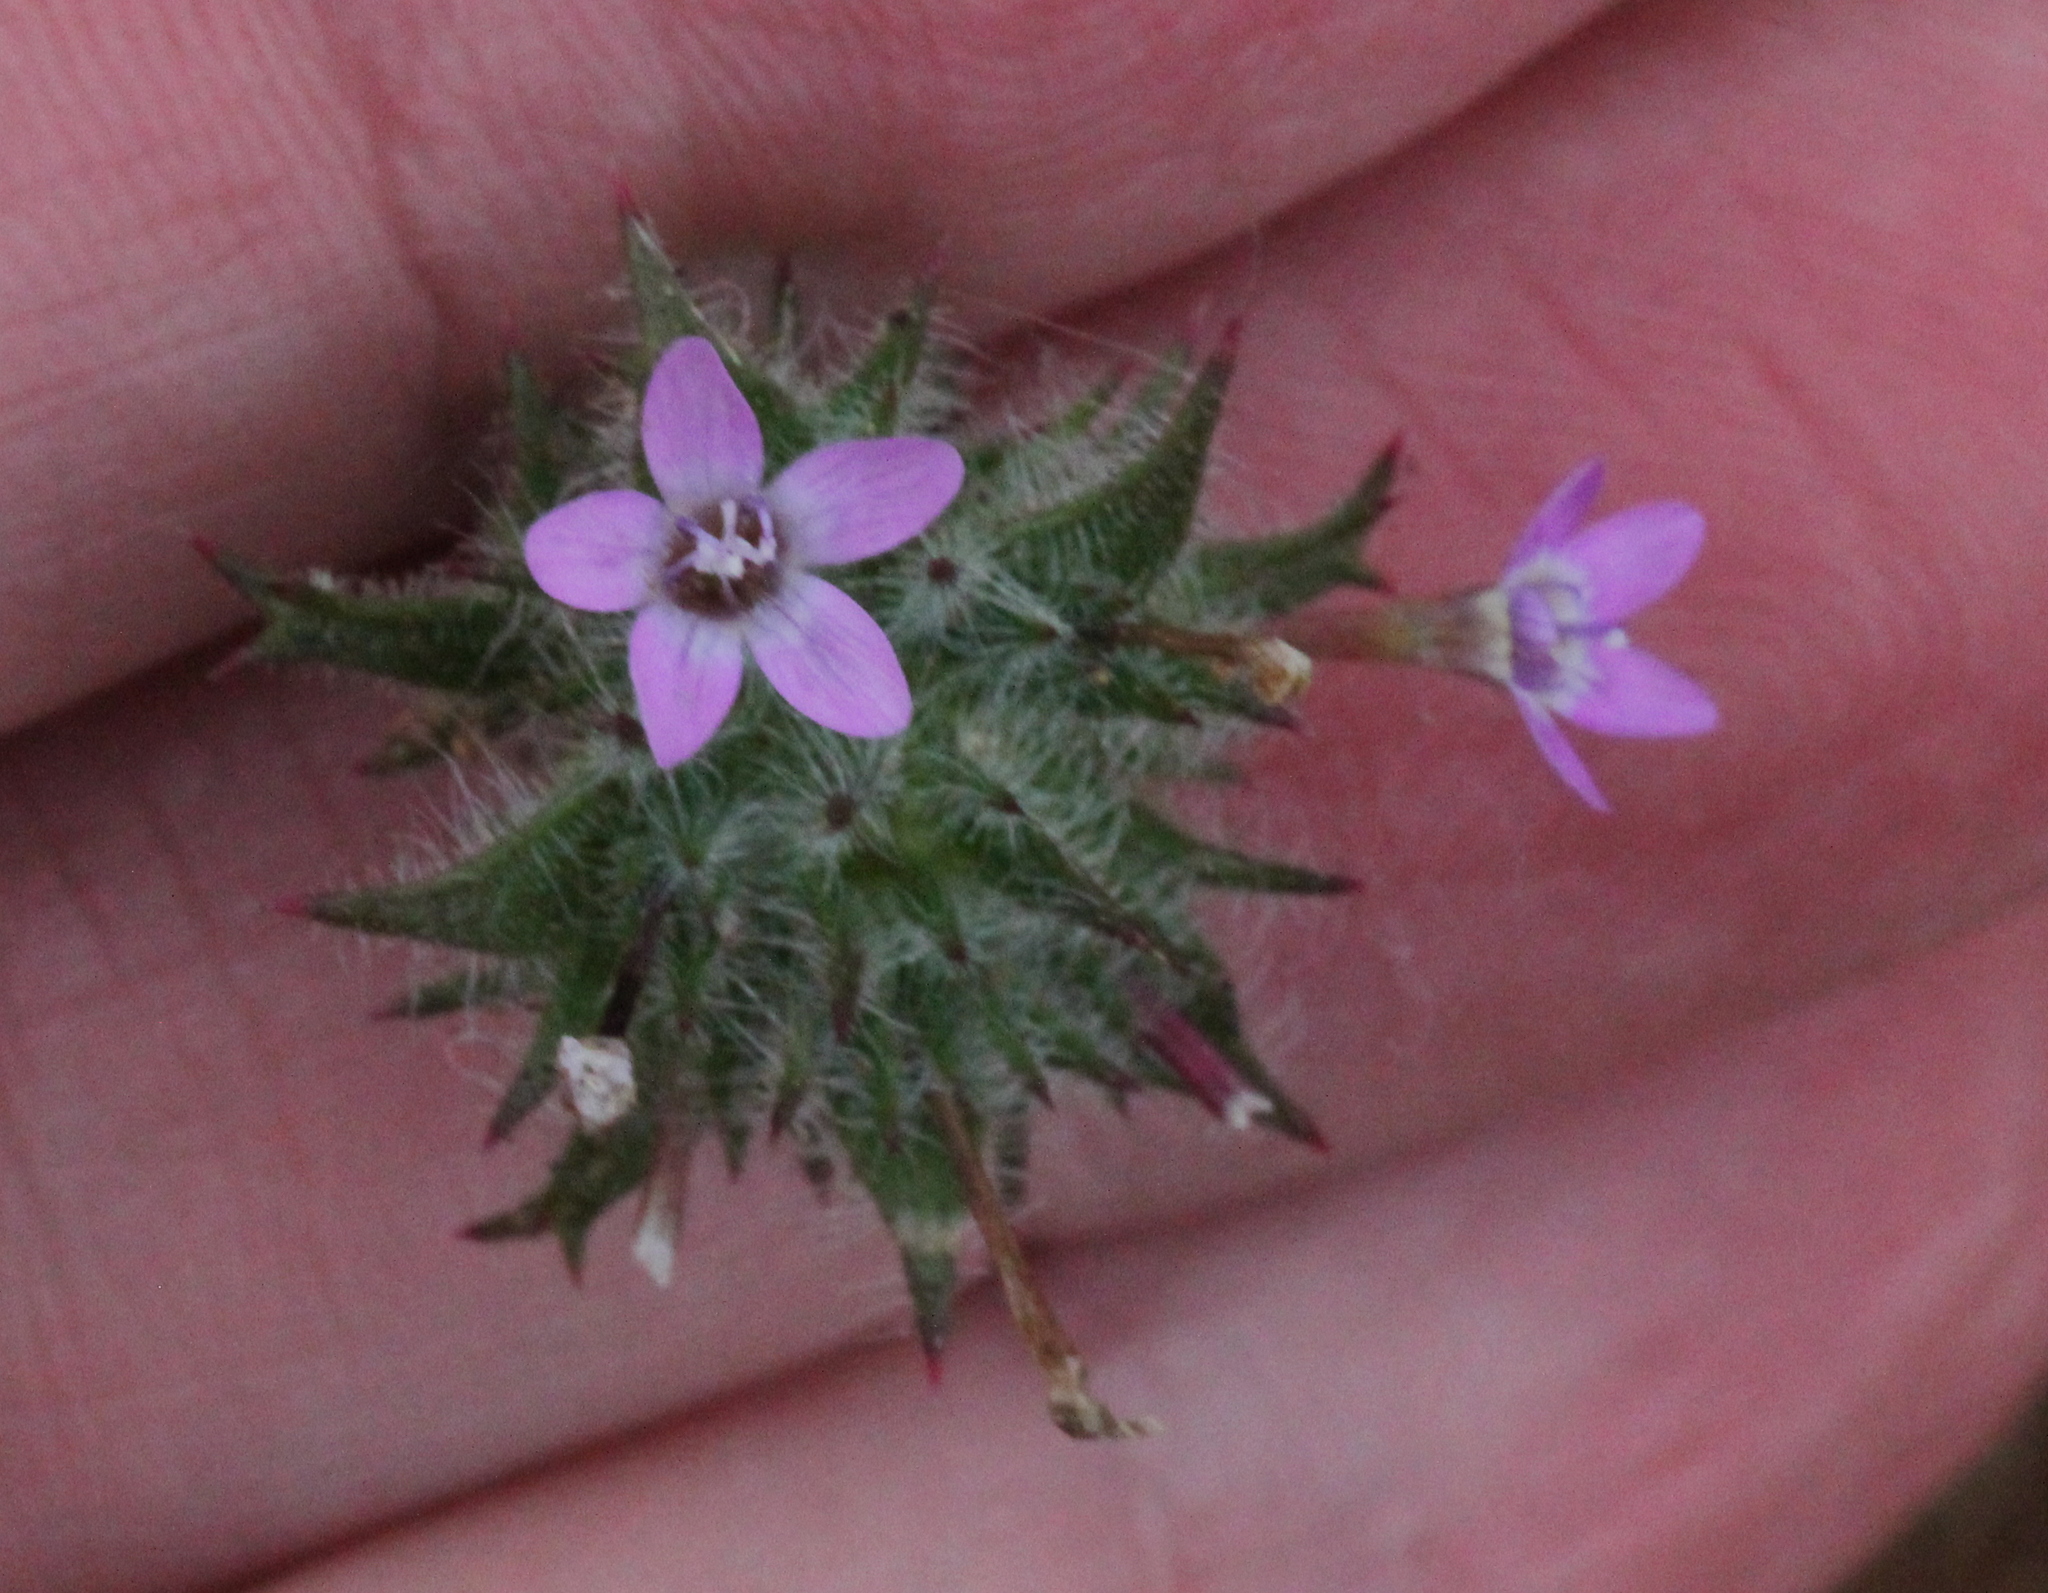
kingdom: Plantae
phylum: Tracheophyta
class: Magnoliopsida
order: Ericales
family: Polemoniaceae
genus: Navarretia
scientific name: Navarretia hamata
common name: Hooked navarretia
